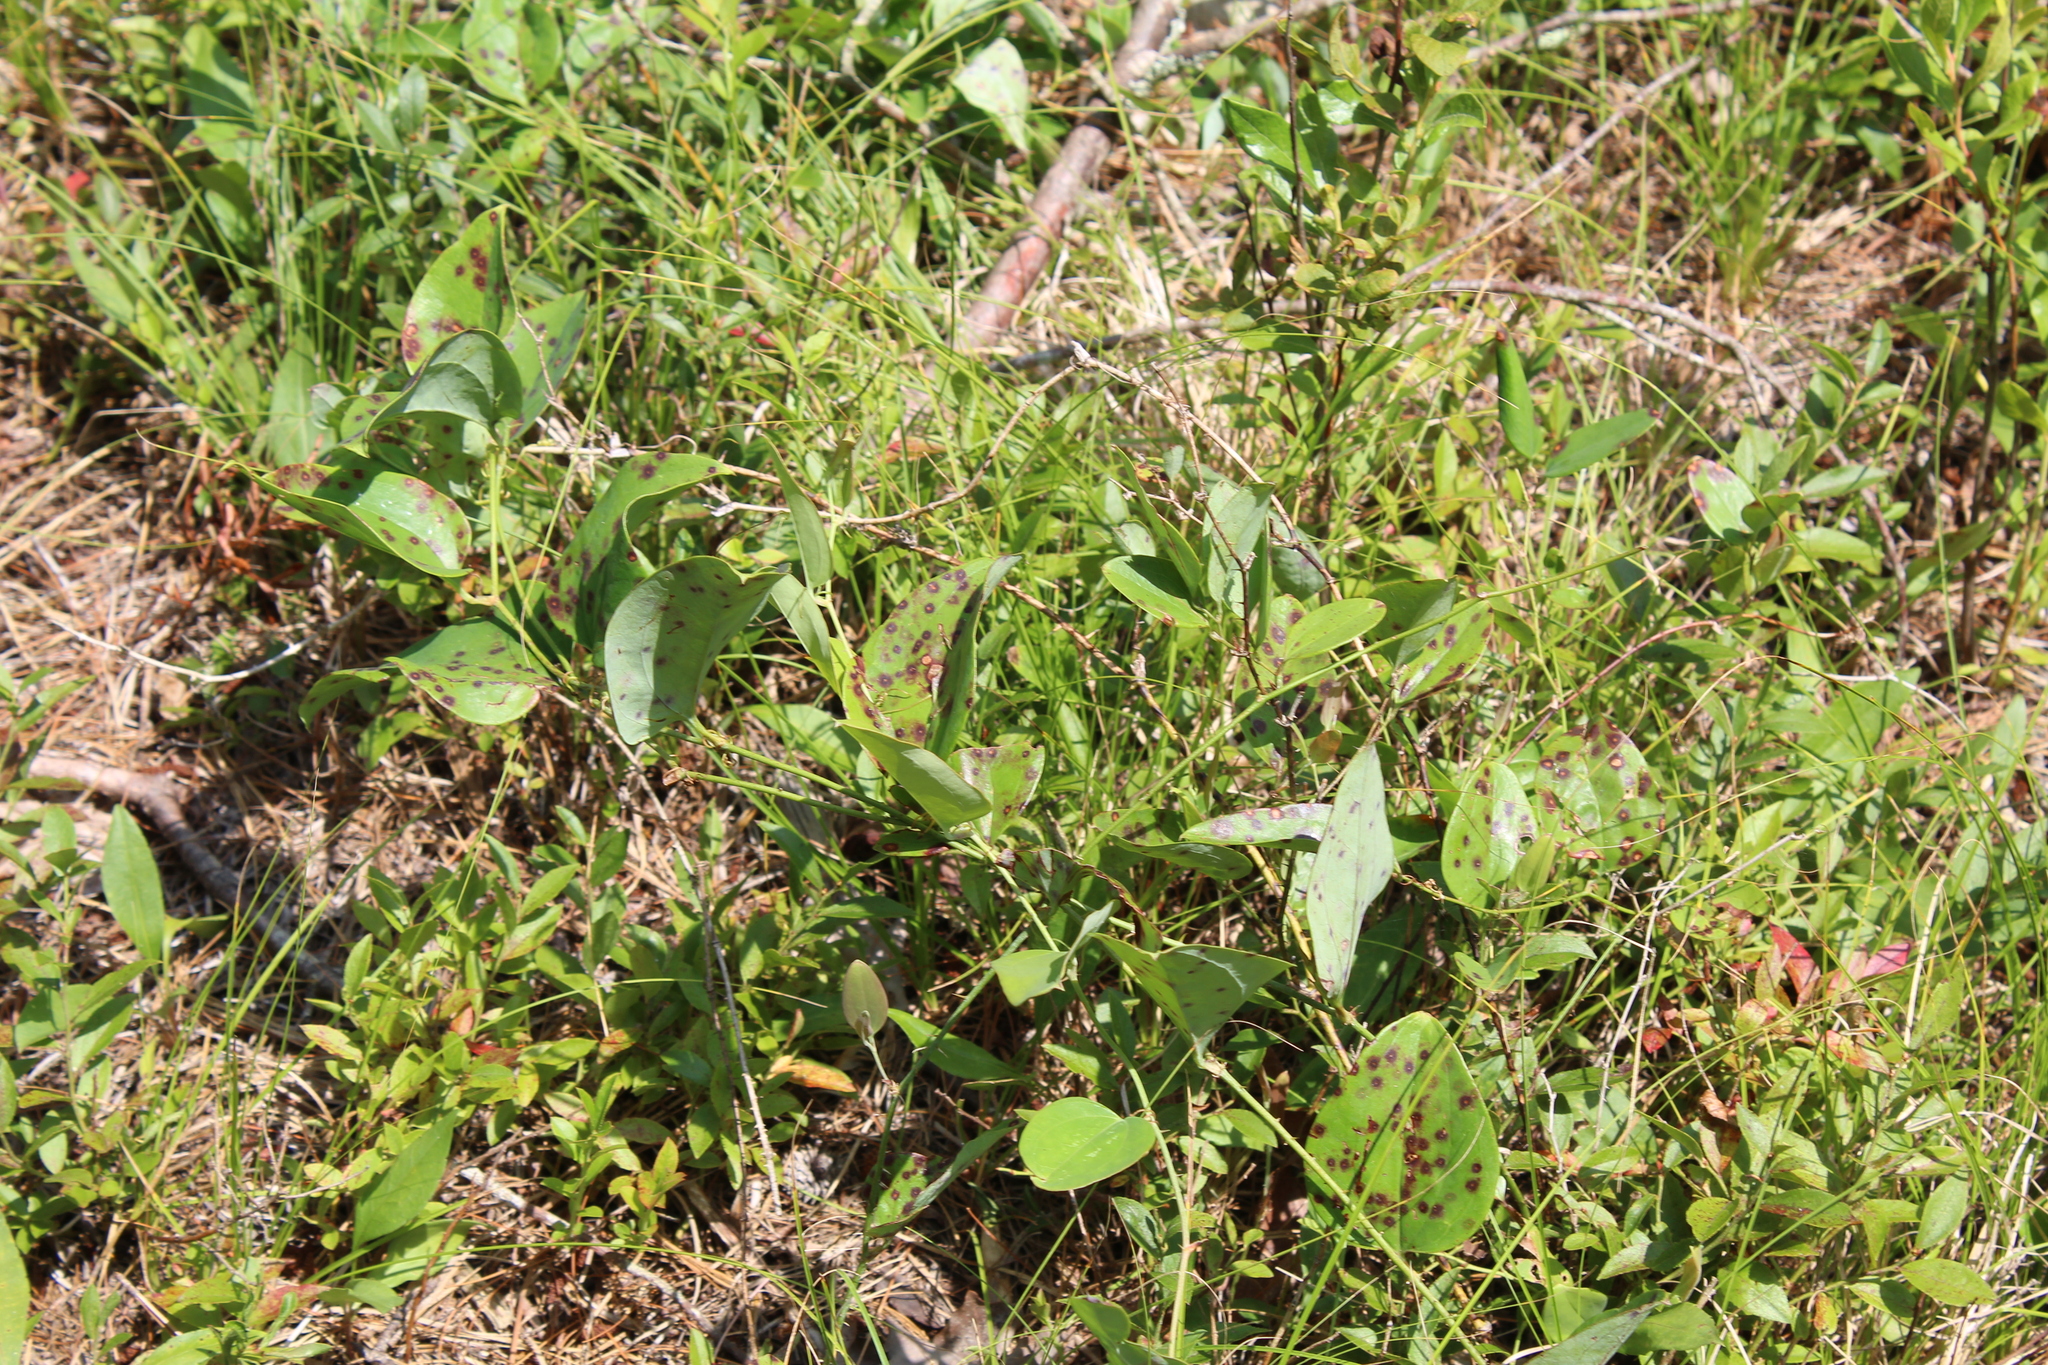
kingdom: Plantae
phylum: Tracheophyta
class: Liliopsida
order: Liliales
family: Smilacaceae
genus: Smilax
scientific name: Smilax glauca
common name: Cat greenbrier
